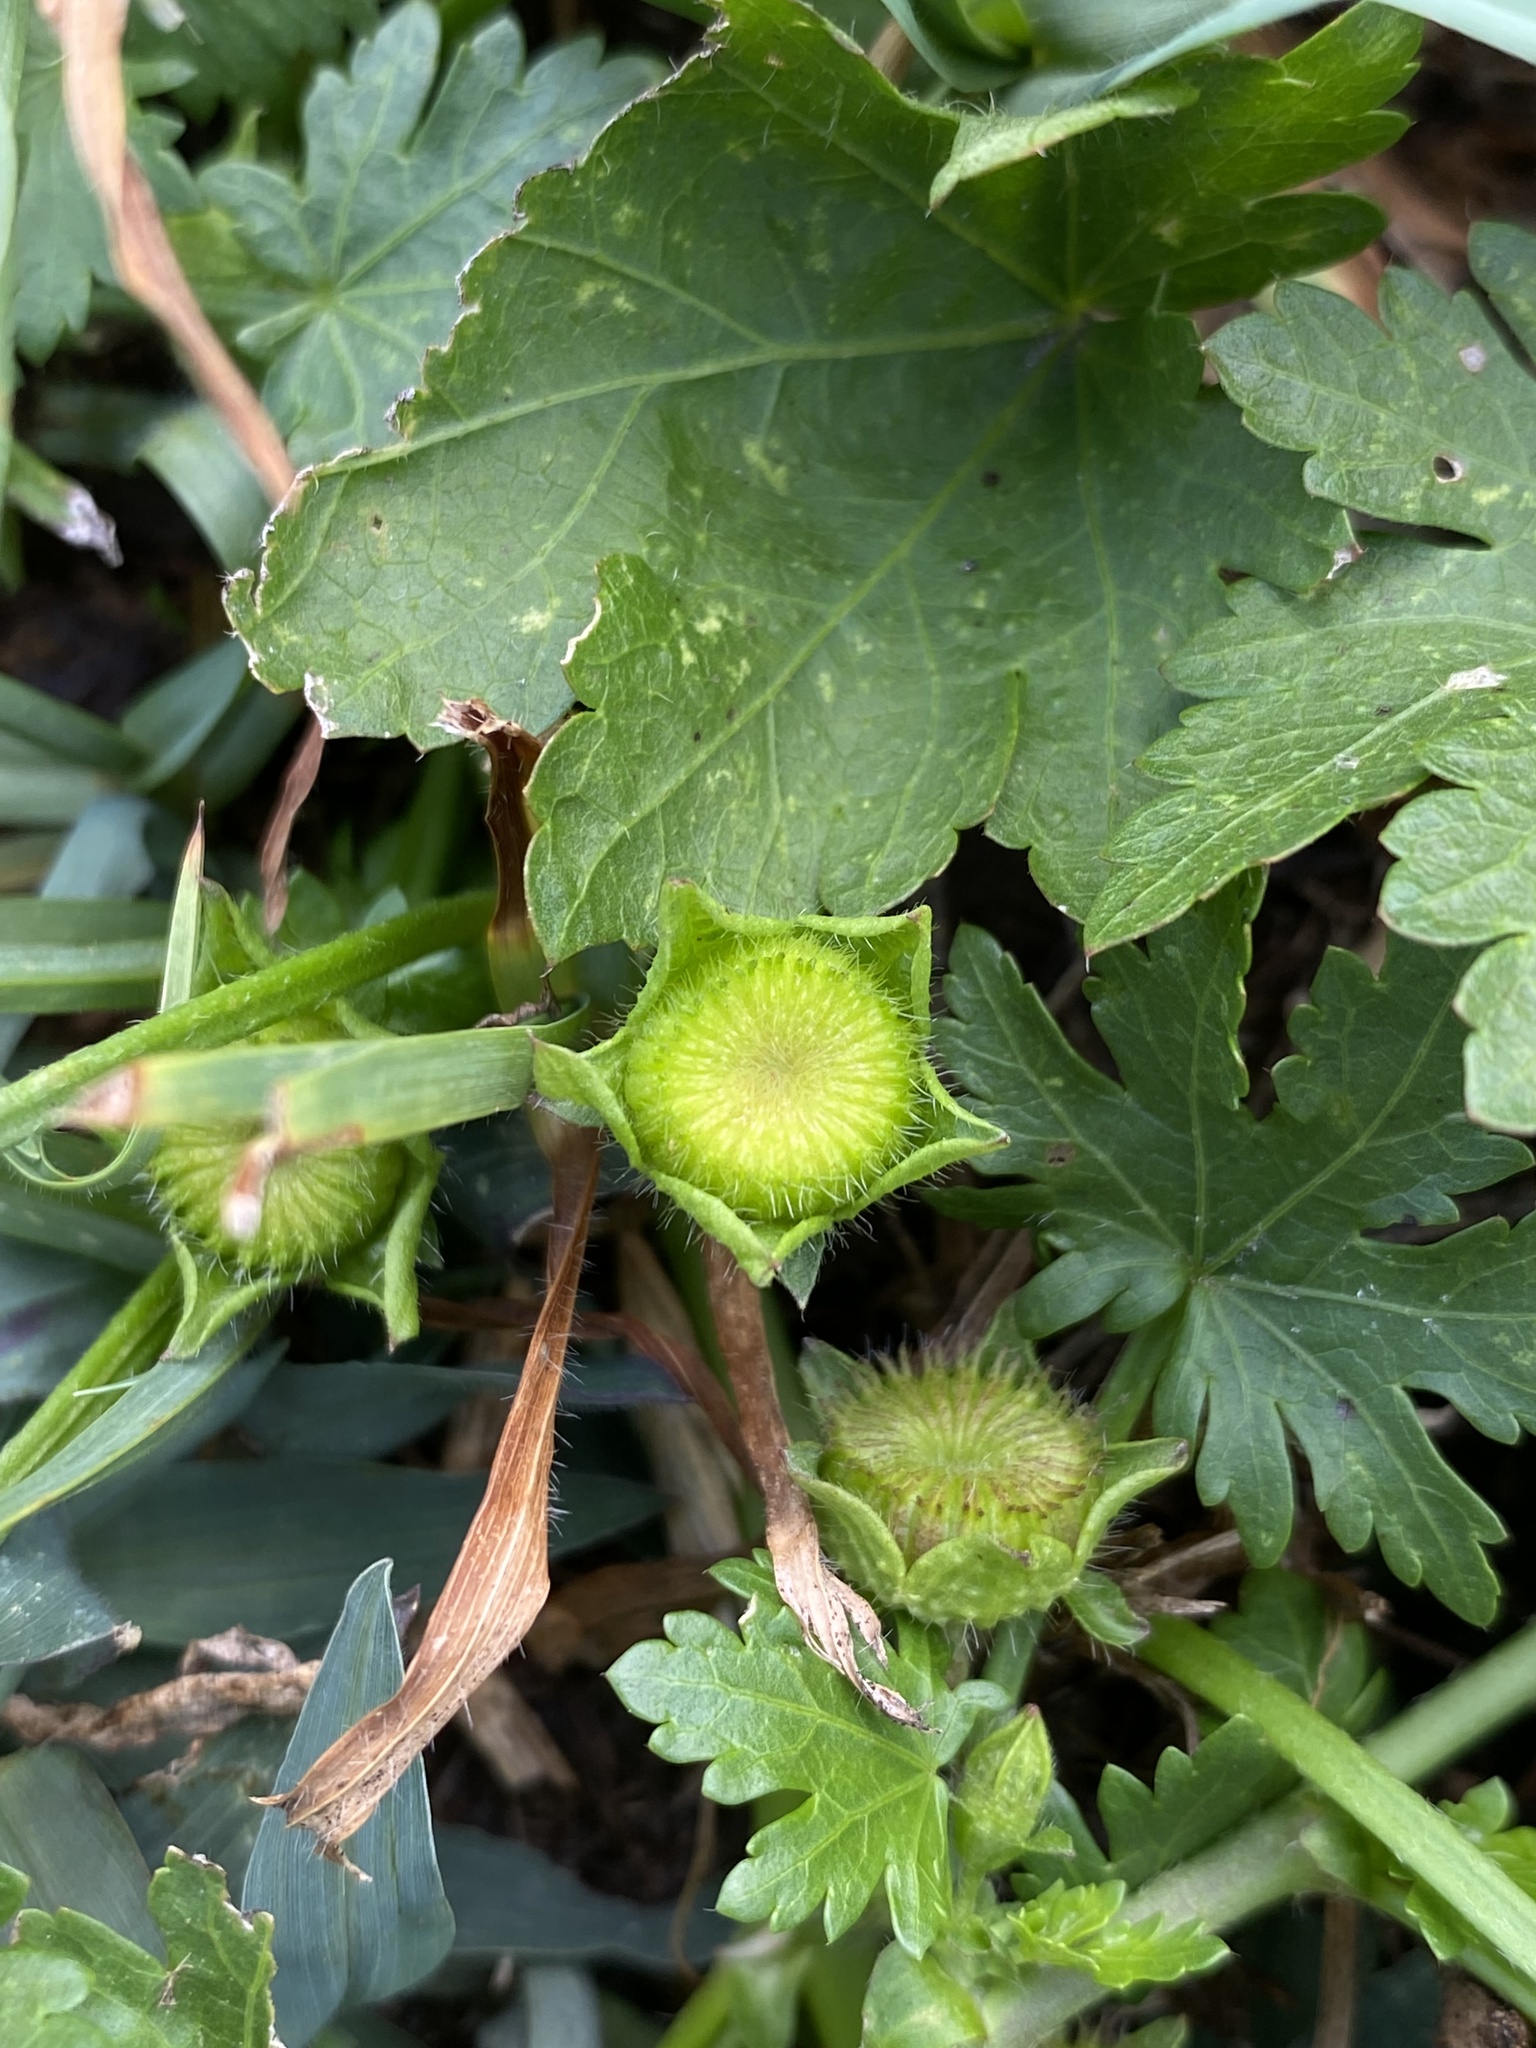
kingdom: Plantae
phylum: Tracheophyta
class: Magnoliopsida
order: Malvales
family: Malvaceae
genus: Modiola
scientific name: Modiola caroliniana
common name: Carolina bristlemallow
